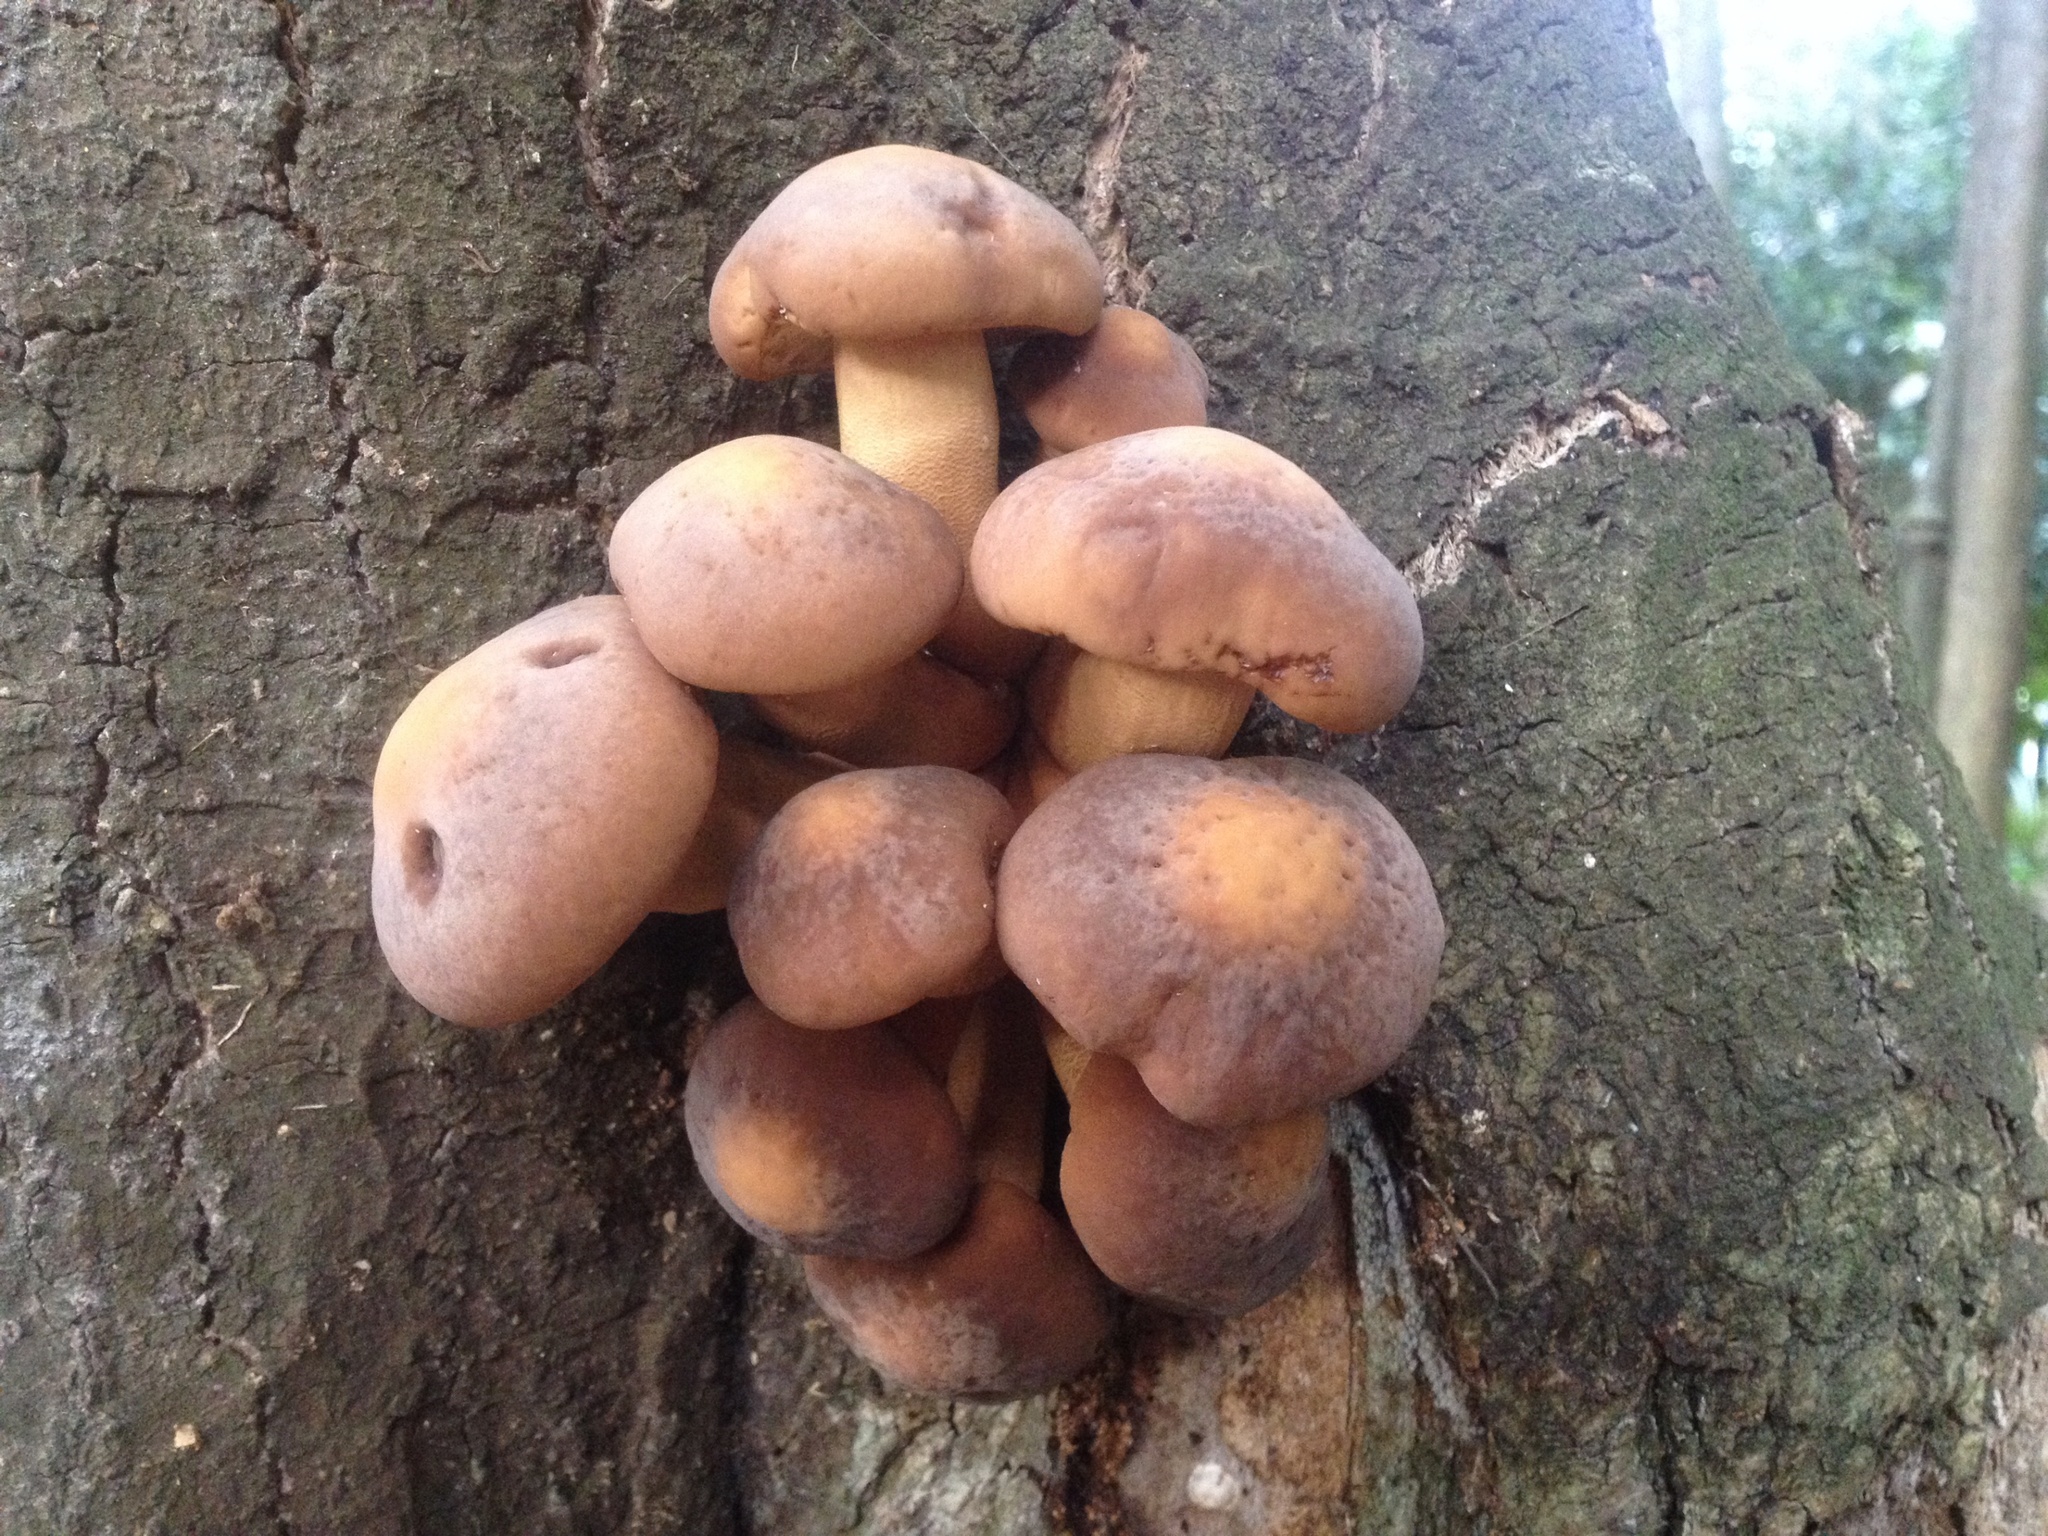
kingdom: Fungi
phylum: Basidiomycota
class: Agaricomycetes
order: Agaricales
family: Tubariaceae
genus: Cyclocybe
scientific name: Cyclocybe parasitica
